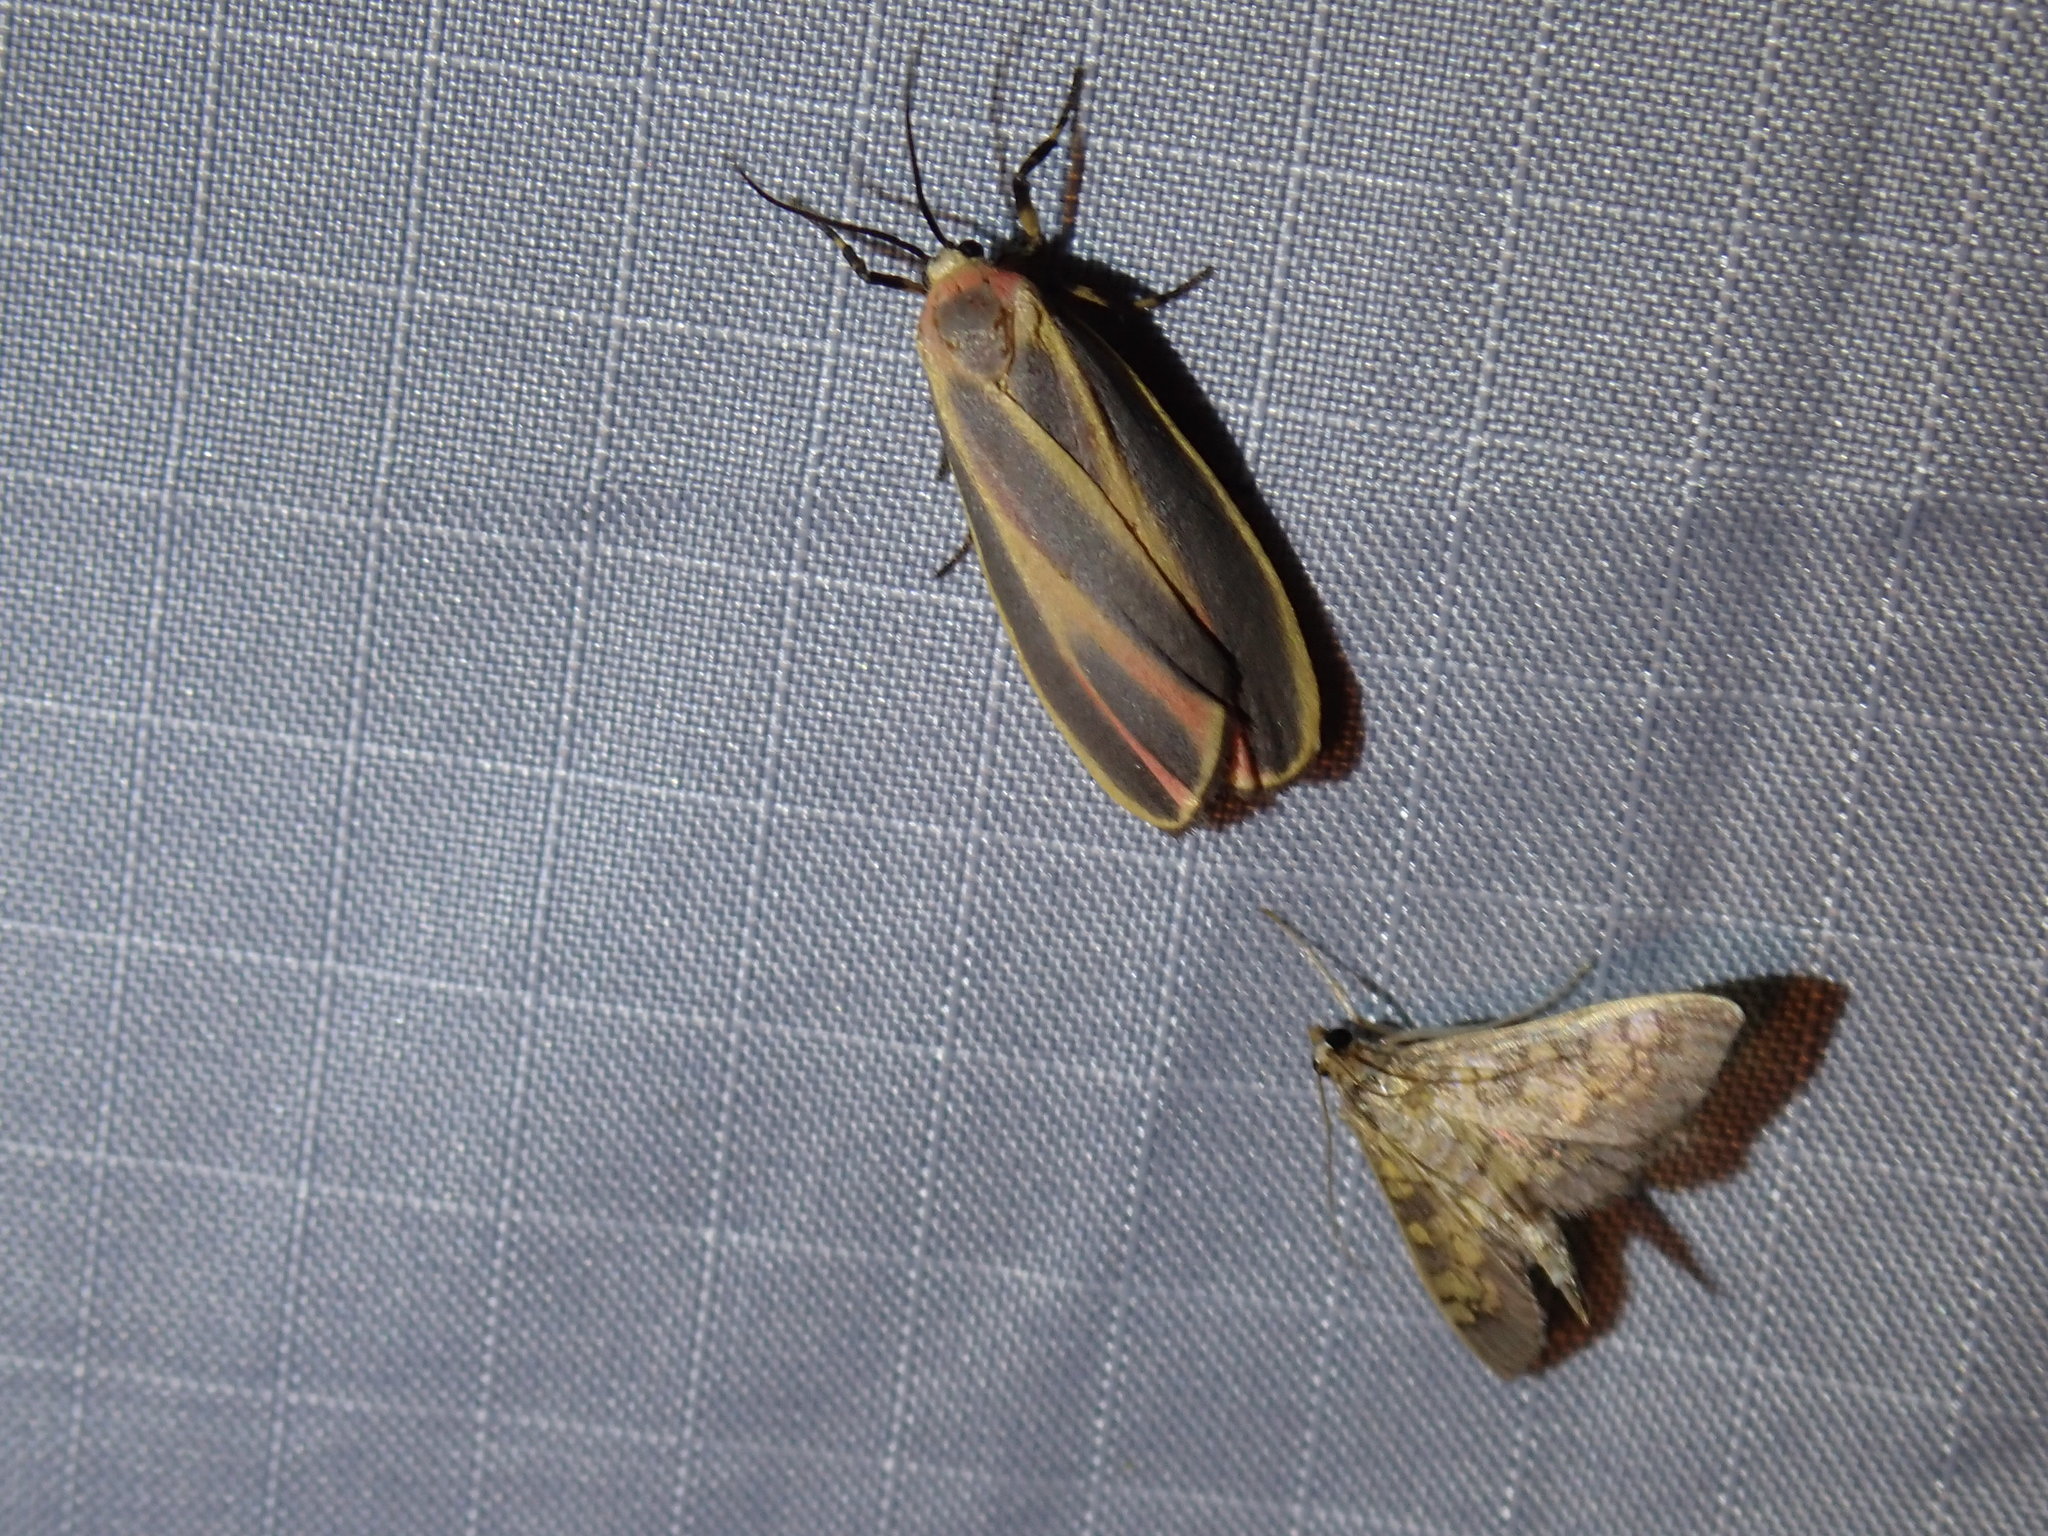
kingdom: Animalia
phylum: Arthropoda
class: Insecta
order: Lepidoptera
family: Erebidae
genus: Hypoprepia
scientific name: Hypoprepia fucosa
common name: Painted lichen moth
